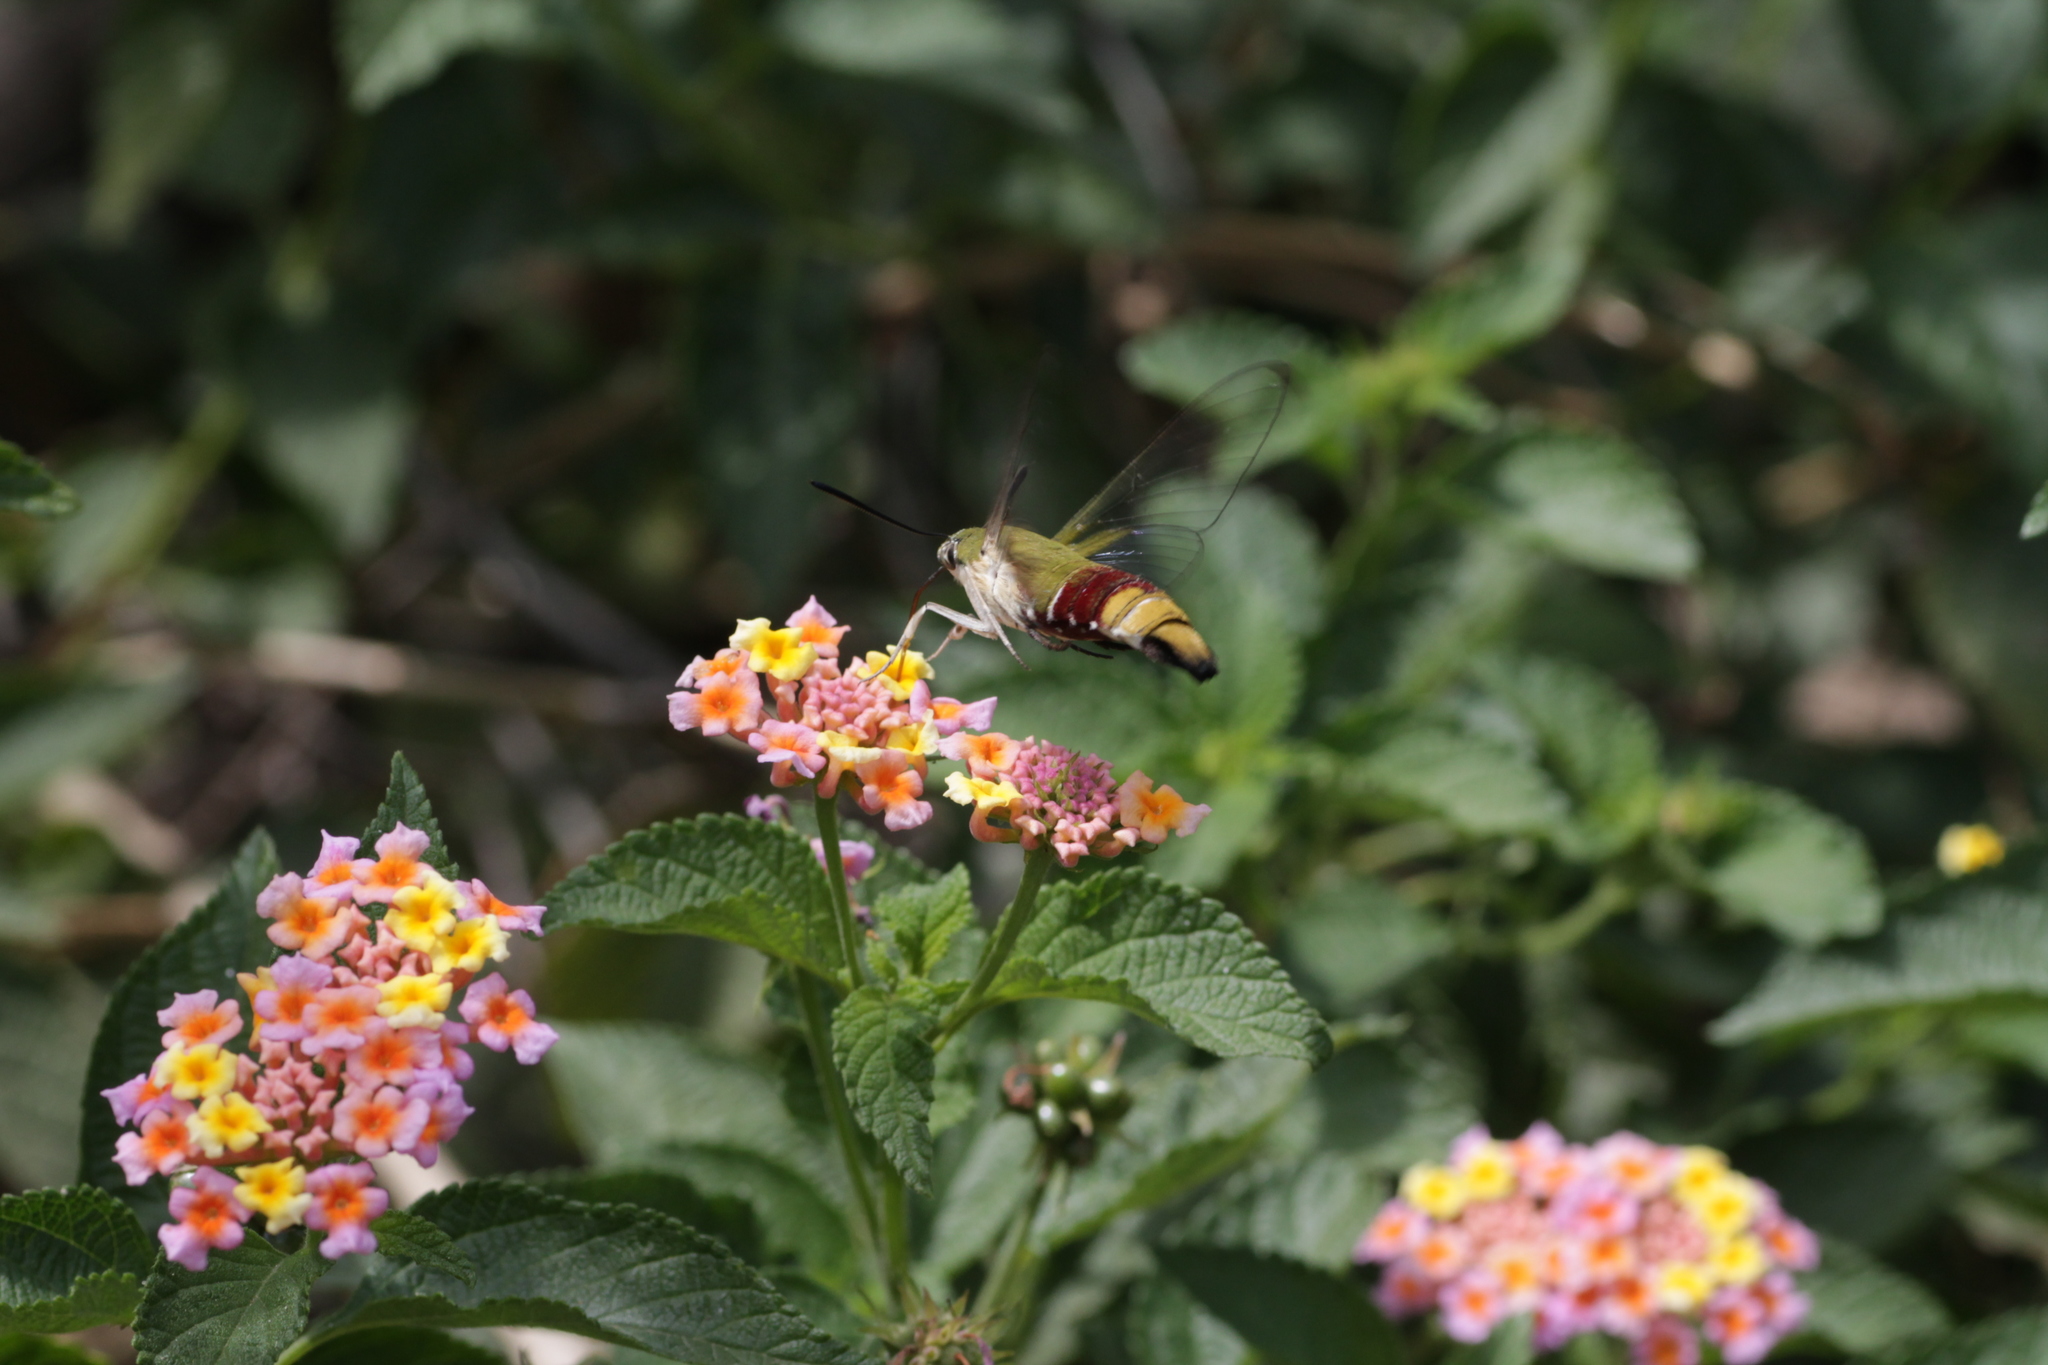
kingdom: Animalia
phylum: Arthropoda
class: Insecta
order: Lepidoptera
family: Sphingidae
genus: Cephonodes
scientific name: Cephonodes hylas
